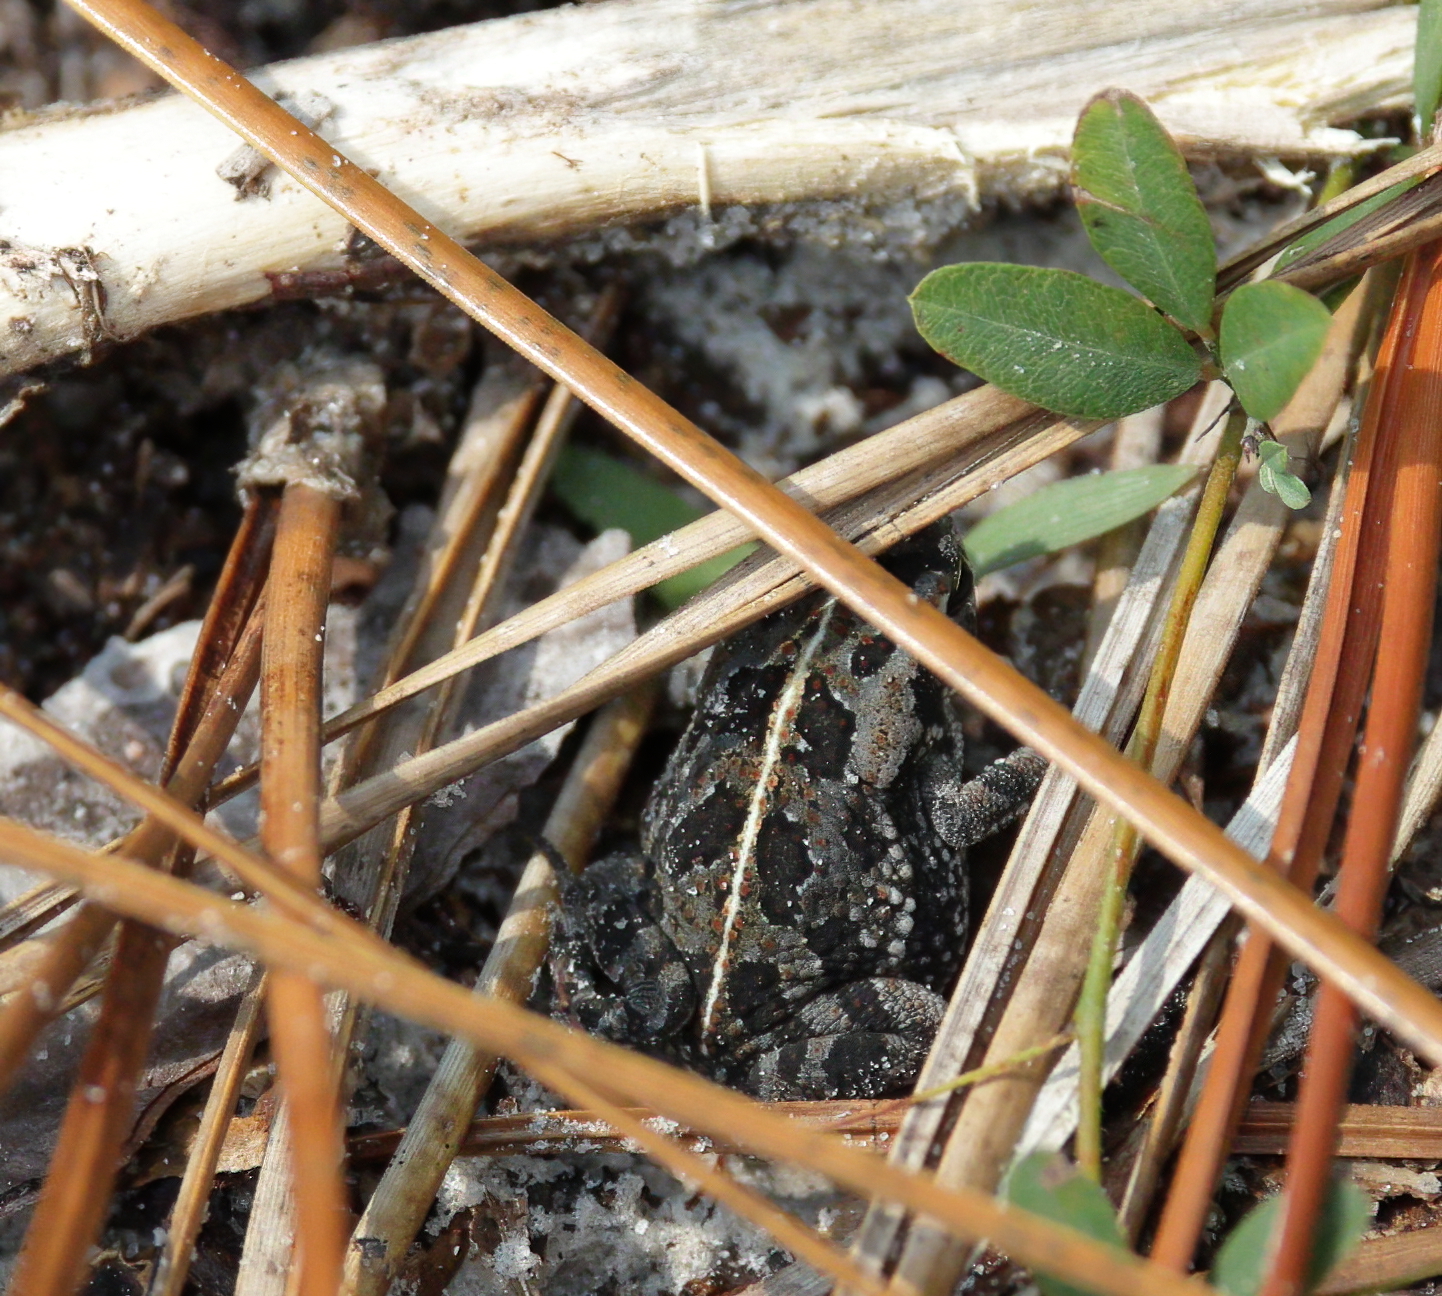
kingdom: Animalia
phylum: Chordata
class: Amphibia
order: Anura
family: Bufonidae
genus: Anaxyrus
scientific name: Anaxyrus quercicus
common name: Oak toad
